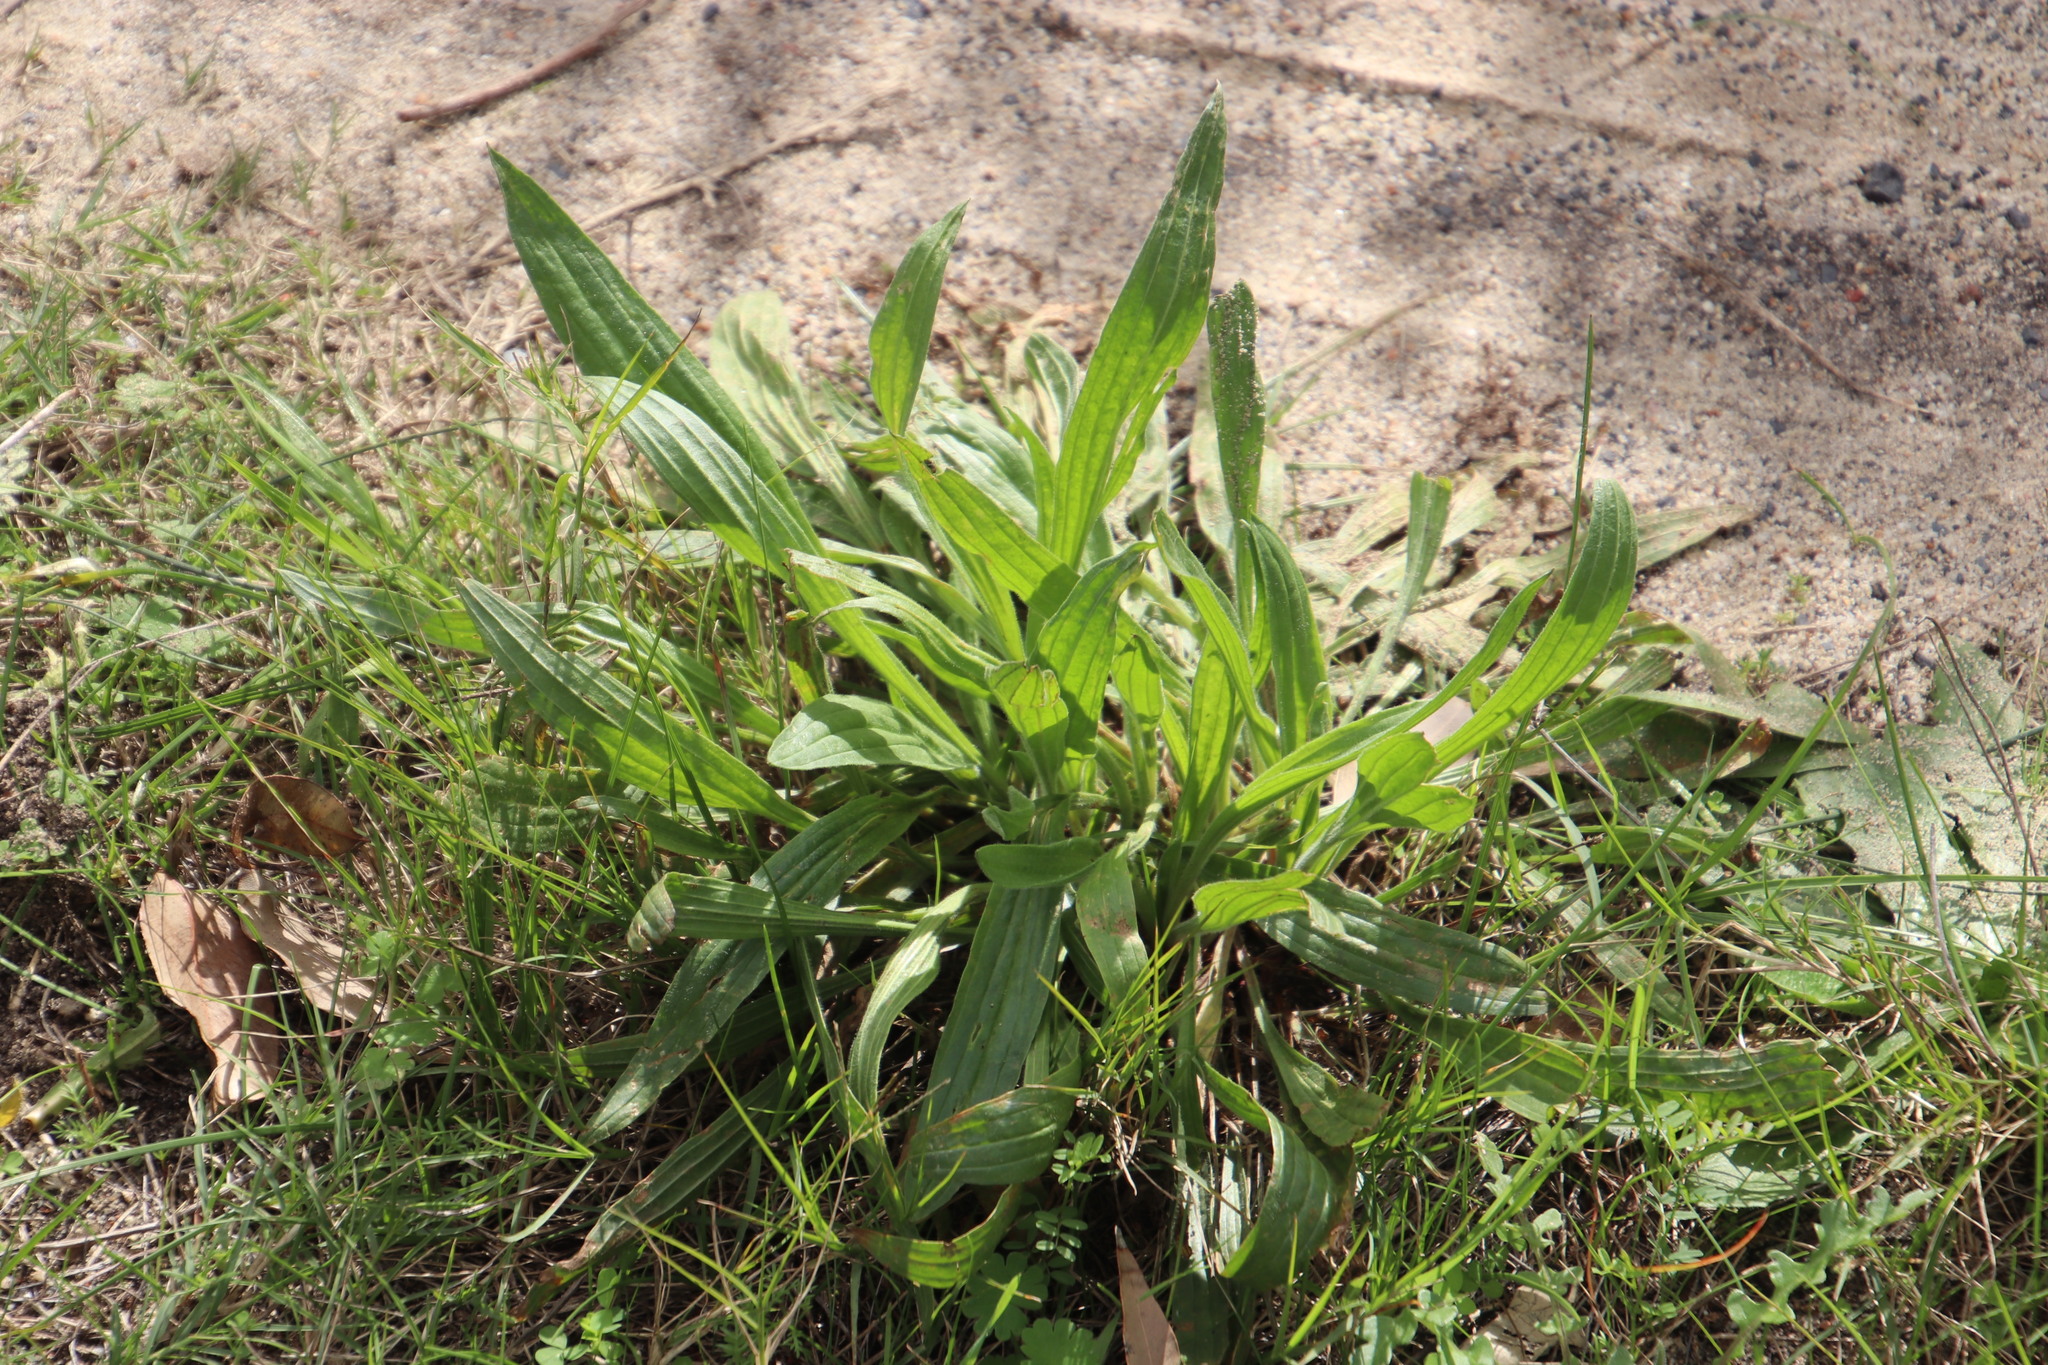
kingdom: Plantae
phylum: Tracheophyta
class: Magnoliopsida
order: Lamiales
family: Plantaginaceae
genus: Plantago
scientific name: Plantago lanceolata
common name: Ribwort plantain
